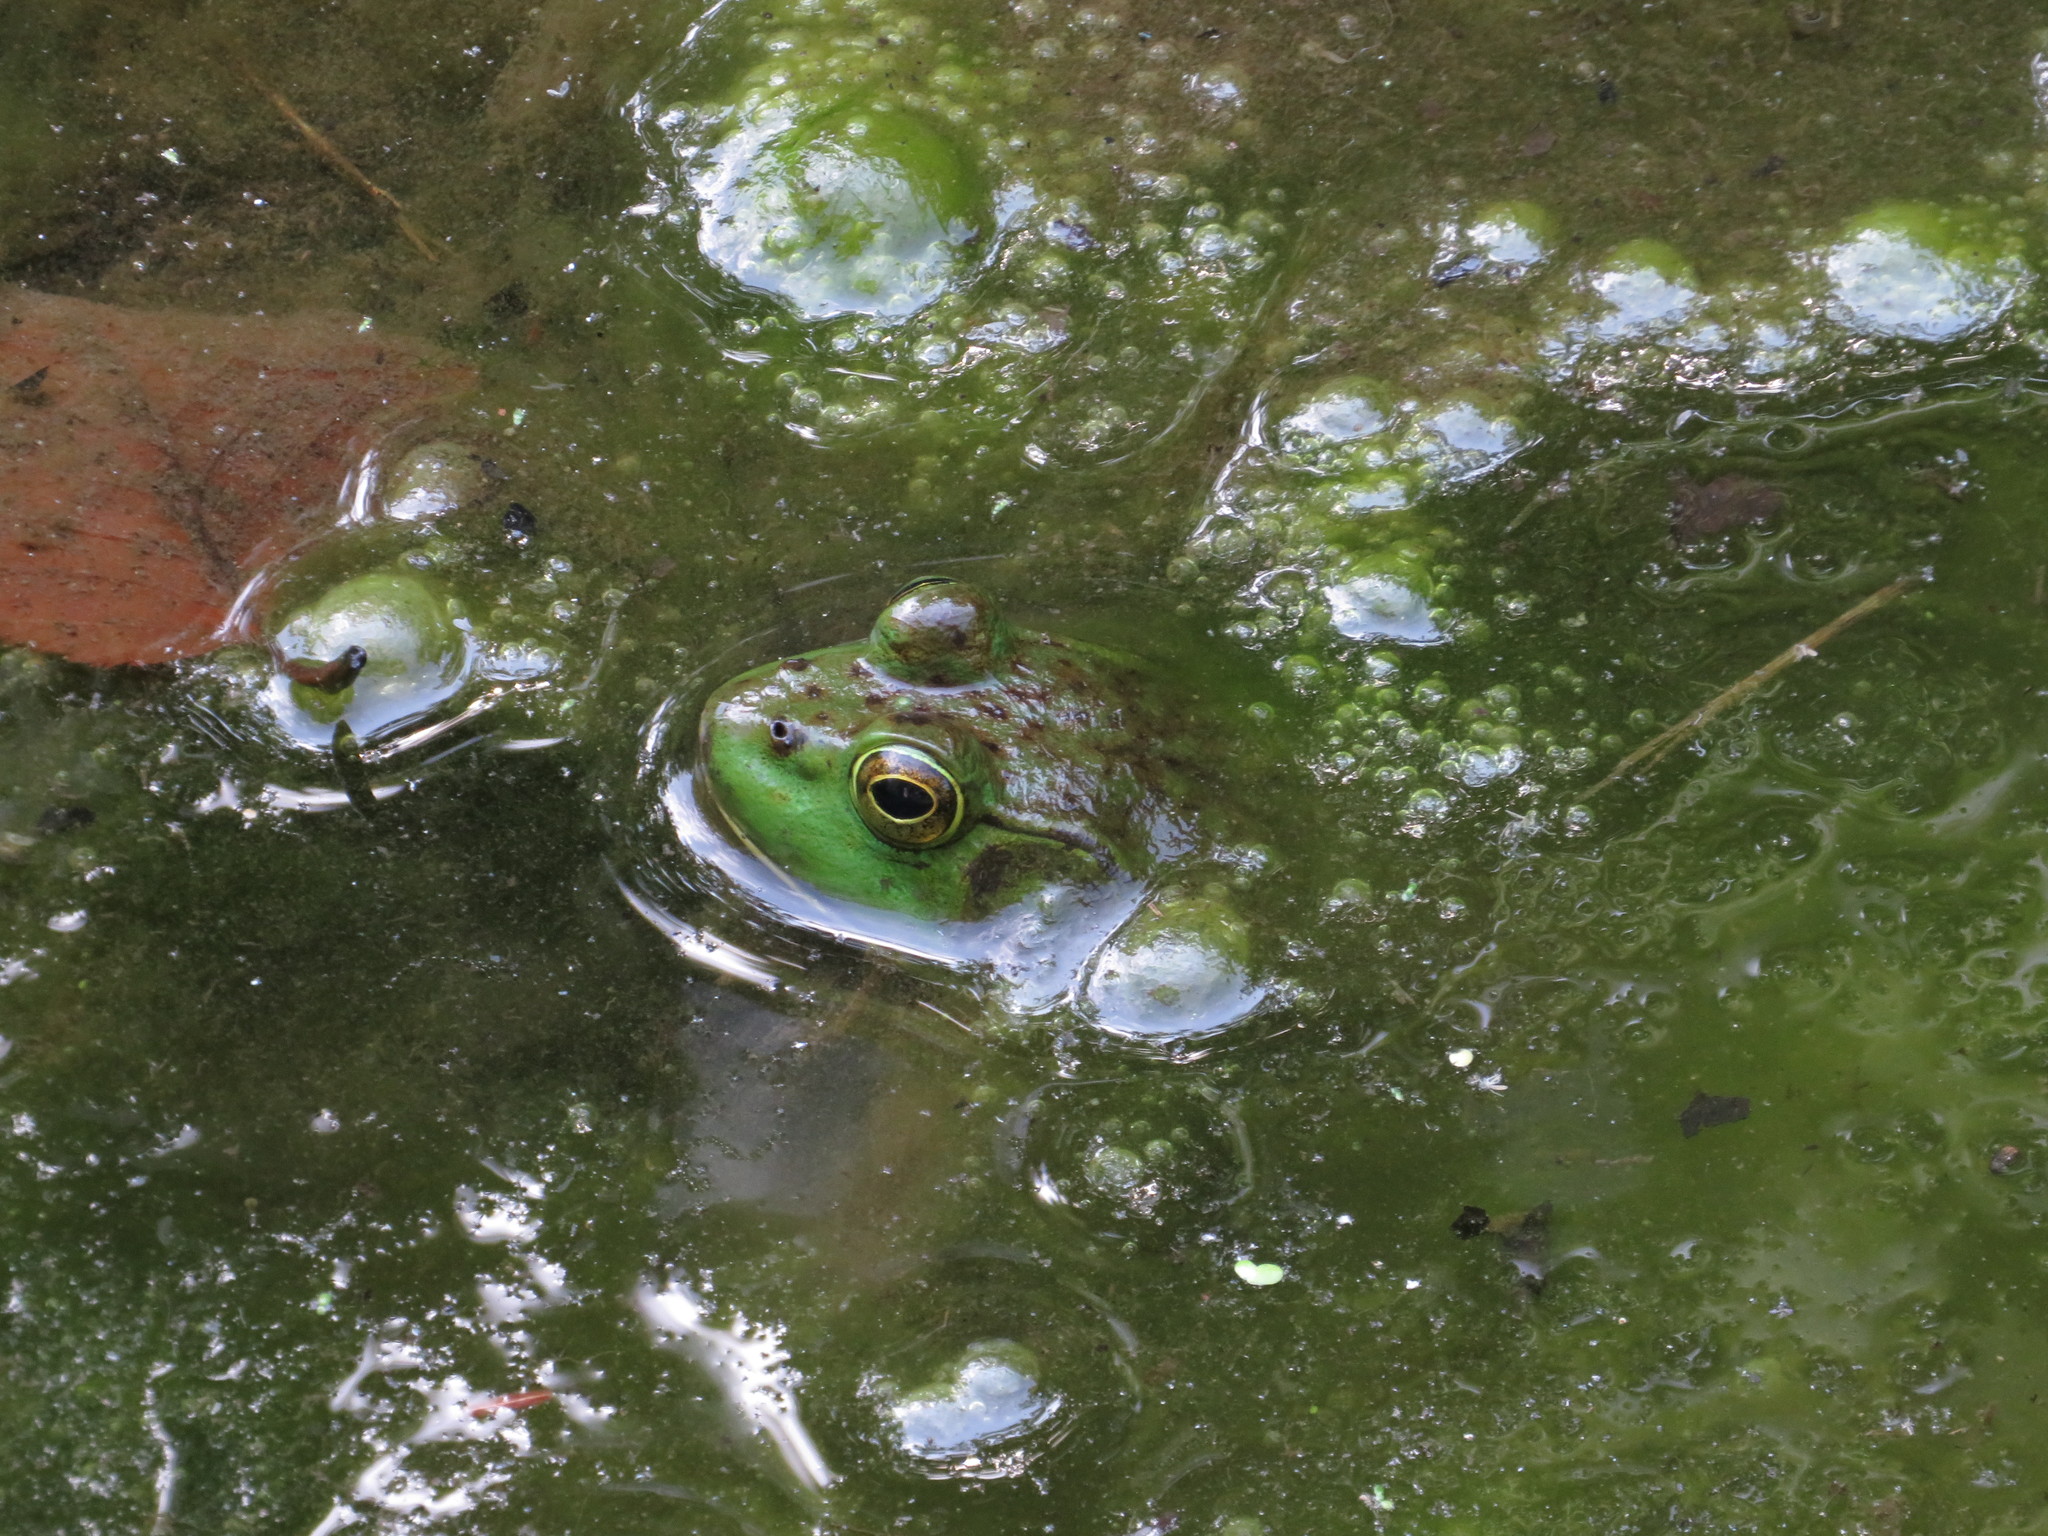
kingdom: Animalia
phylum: Chordata
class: Amphibia
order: Anura
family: Ranidae
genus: Lithobates
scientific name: Lithobates catesbeianus
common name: American bullfrog
